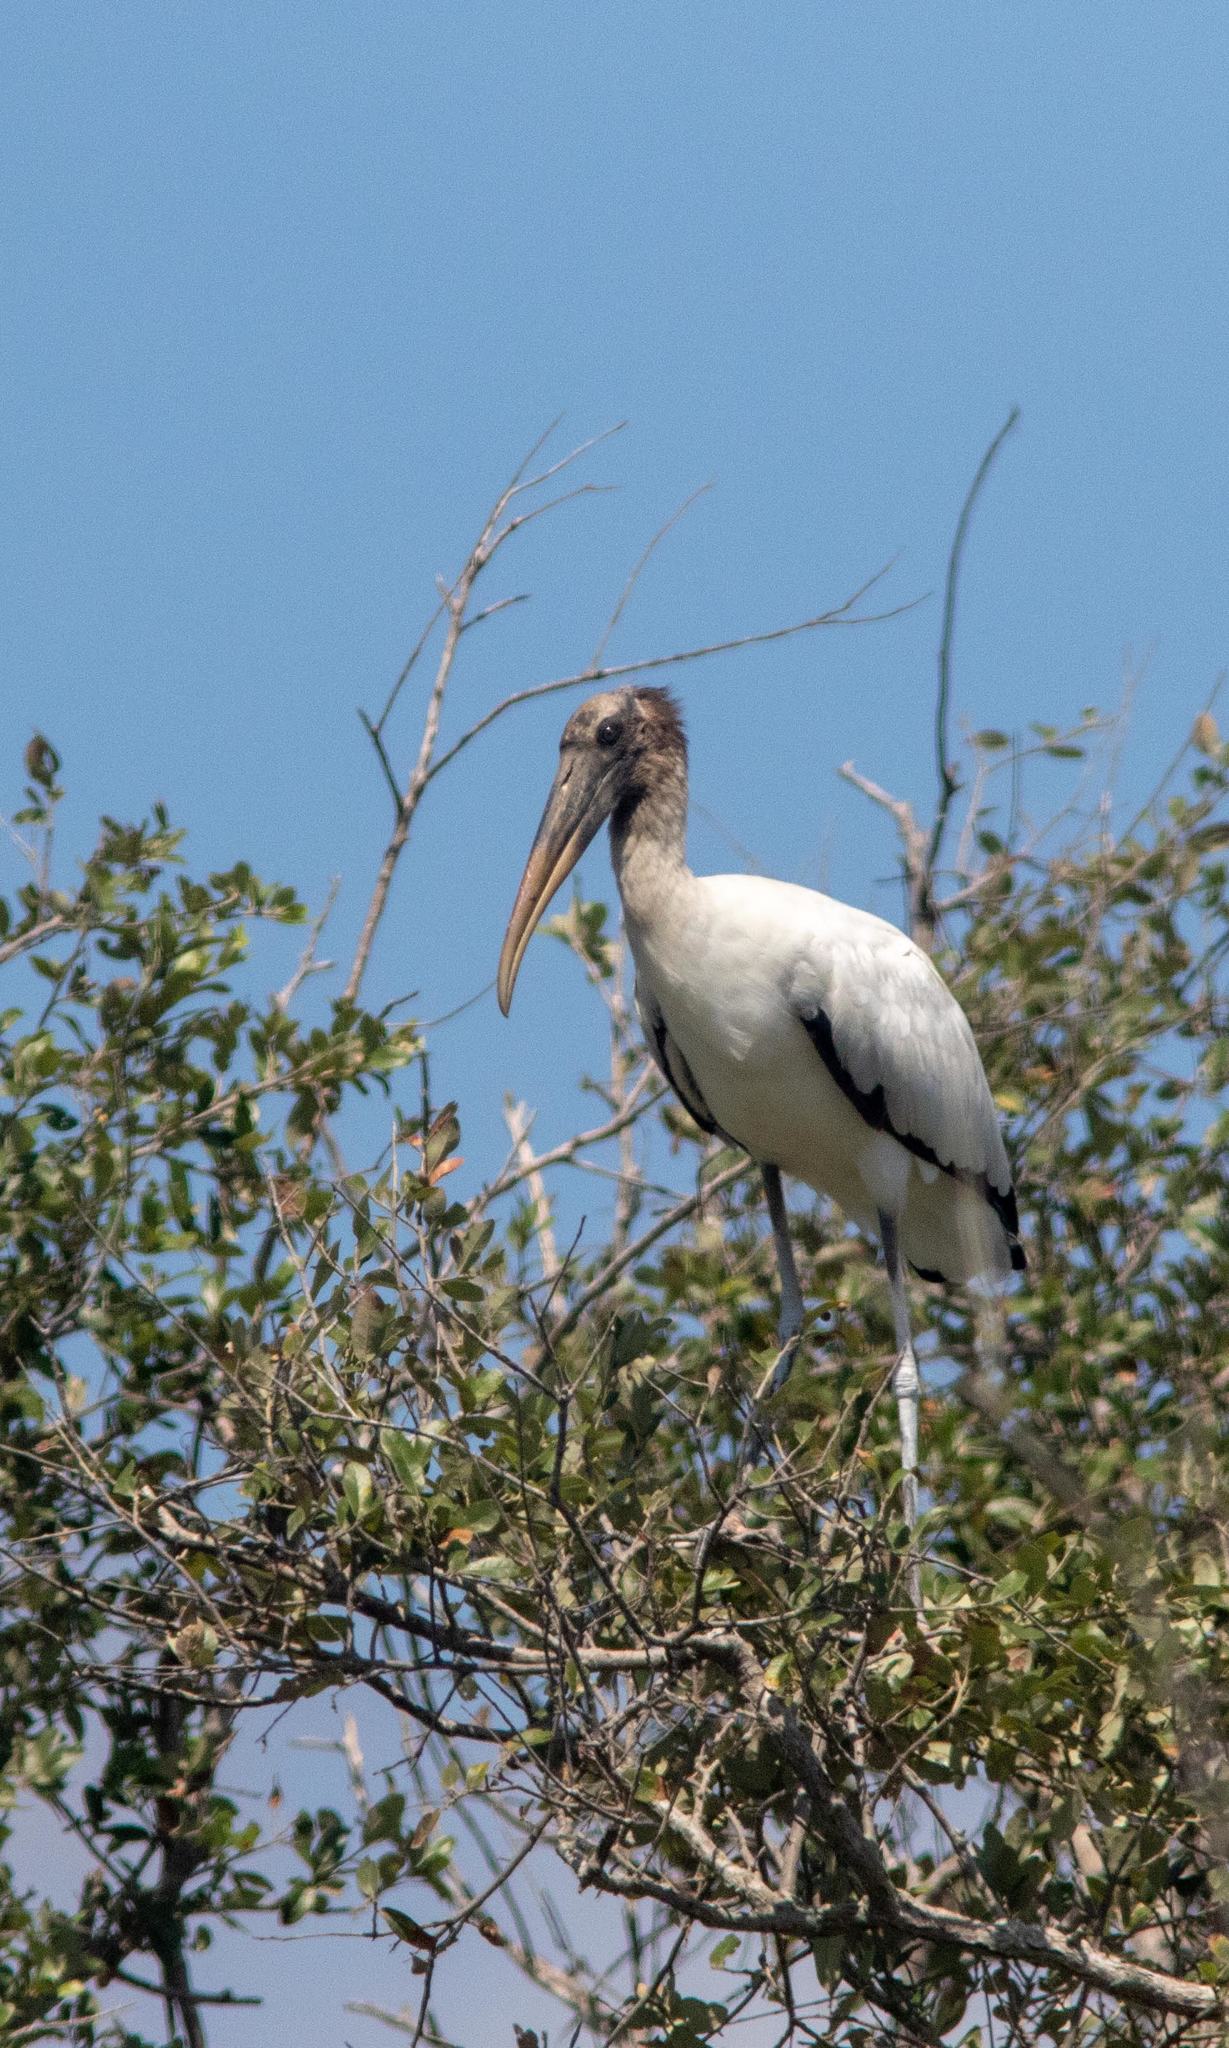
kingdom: Animalia
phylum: Chordata
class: Aves
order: Ciconiiformes
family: Ciconiidae
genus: Mycteria
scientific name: Mycteria americana
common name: Wood stork
